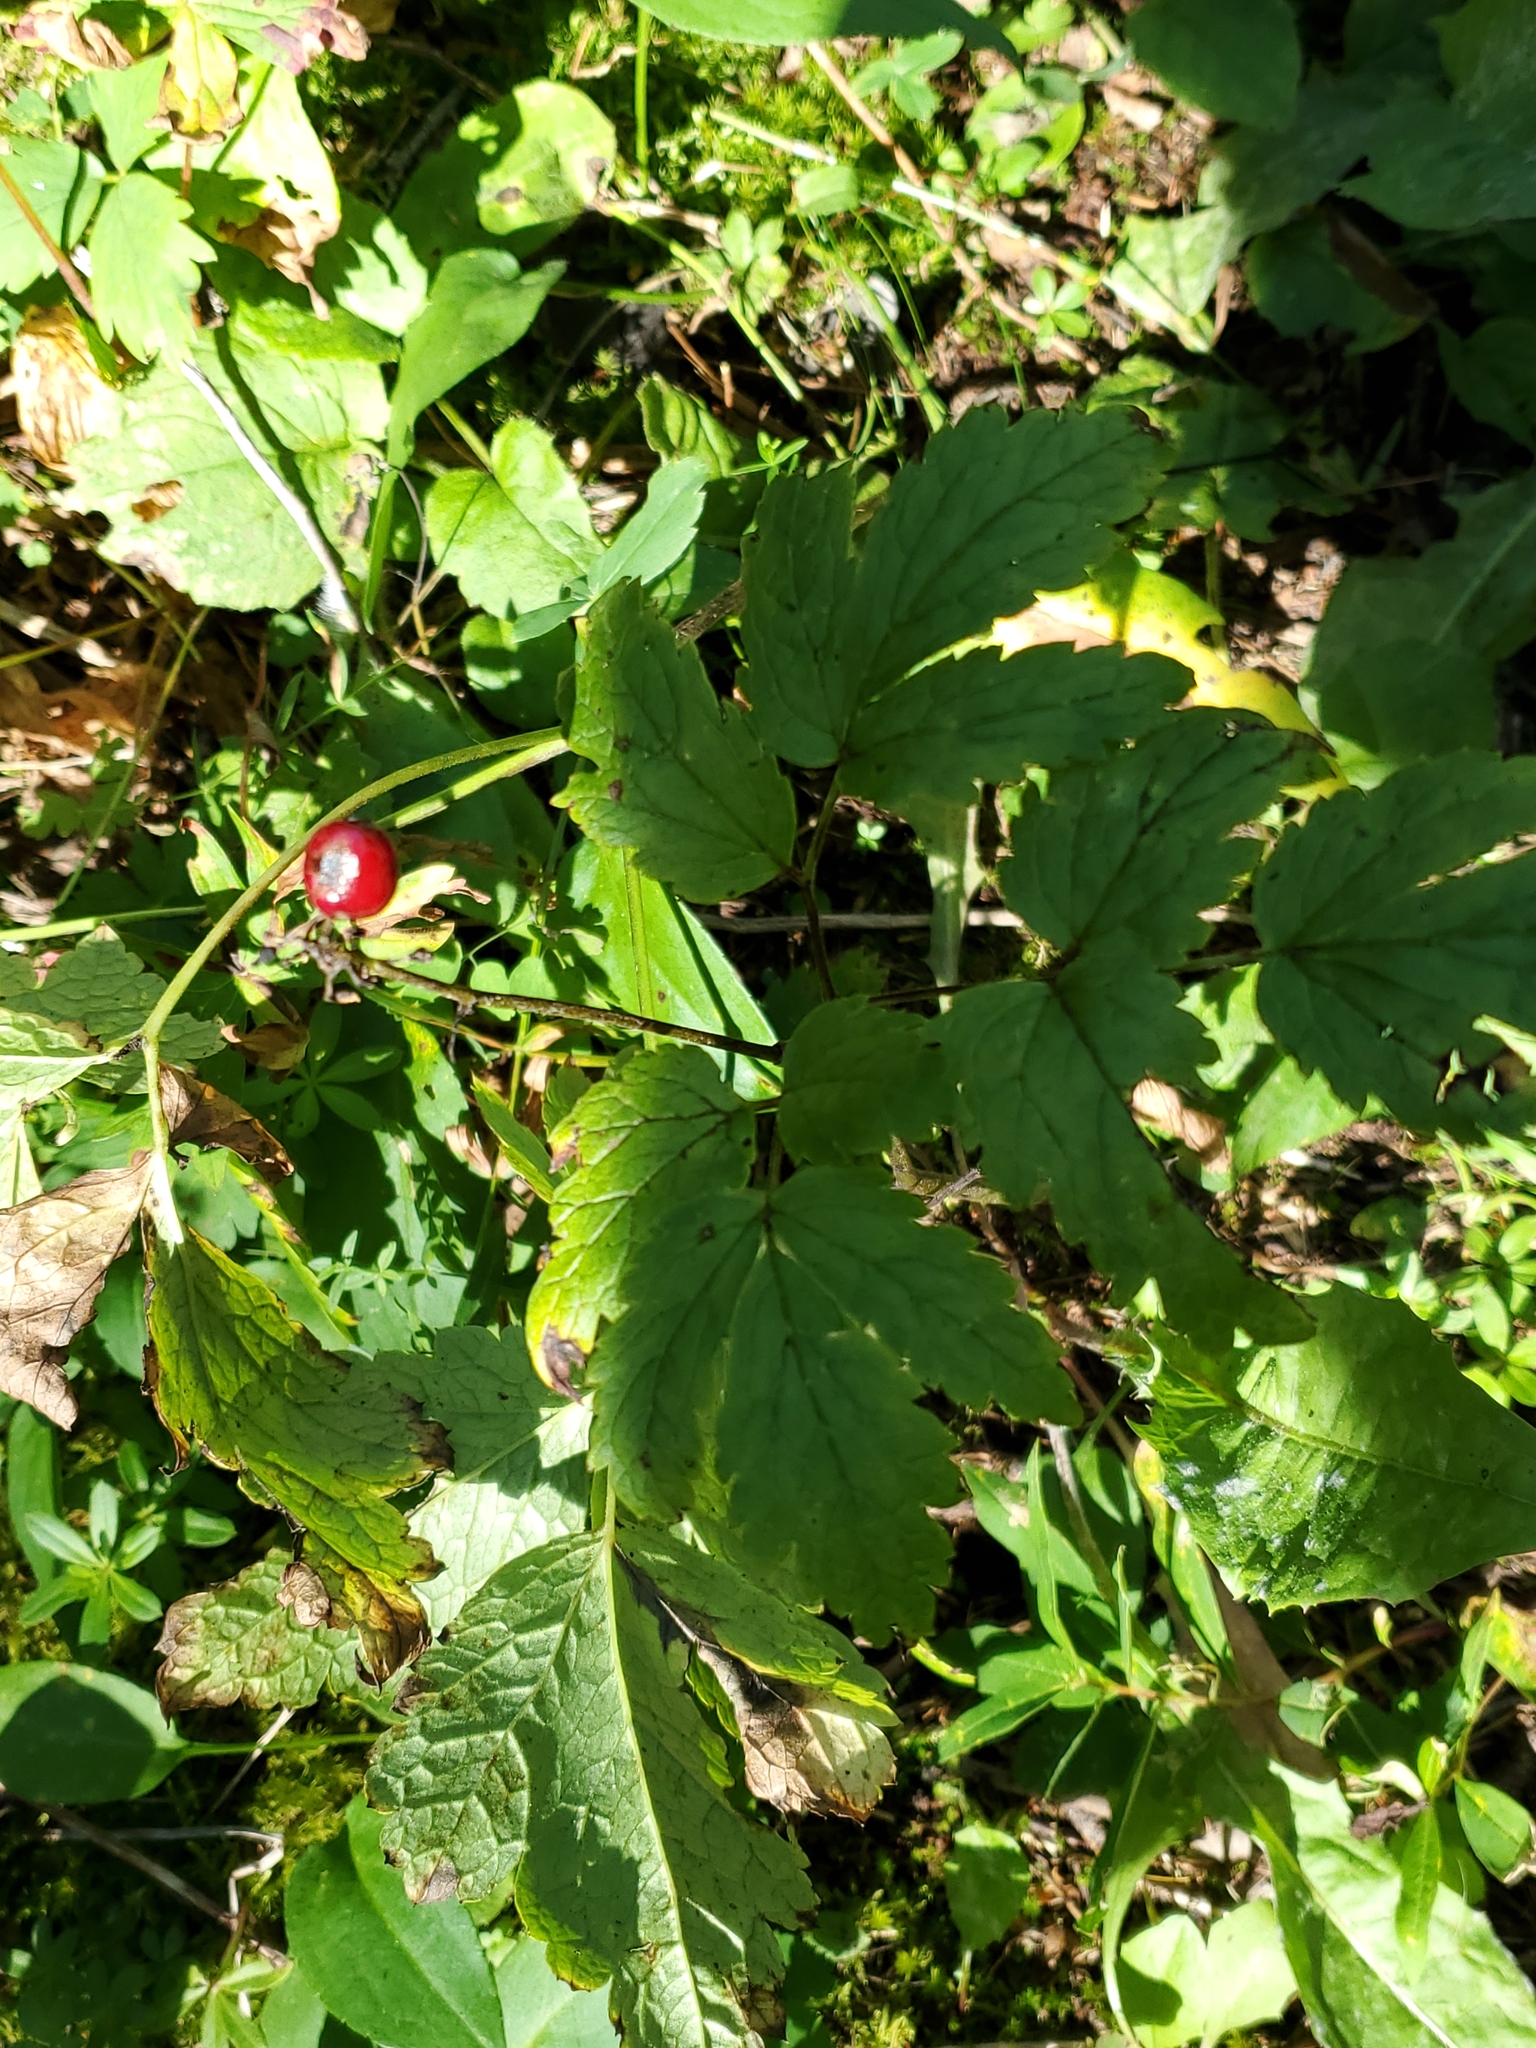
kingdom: Plantae
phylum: Tracheophyta
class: Magnoliopsida
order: Ranunculales
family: Ranunculaceae
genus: Actaea
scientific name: Actaea rubra
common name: Red baneberry
